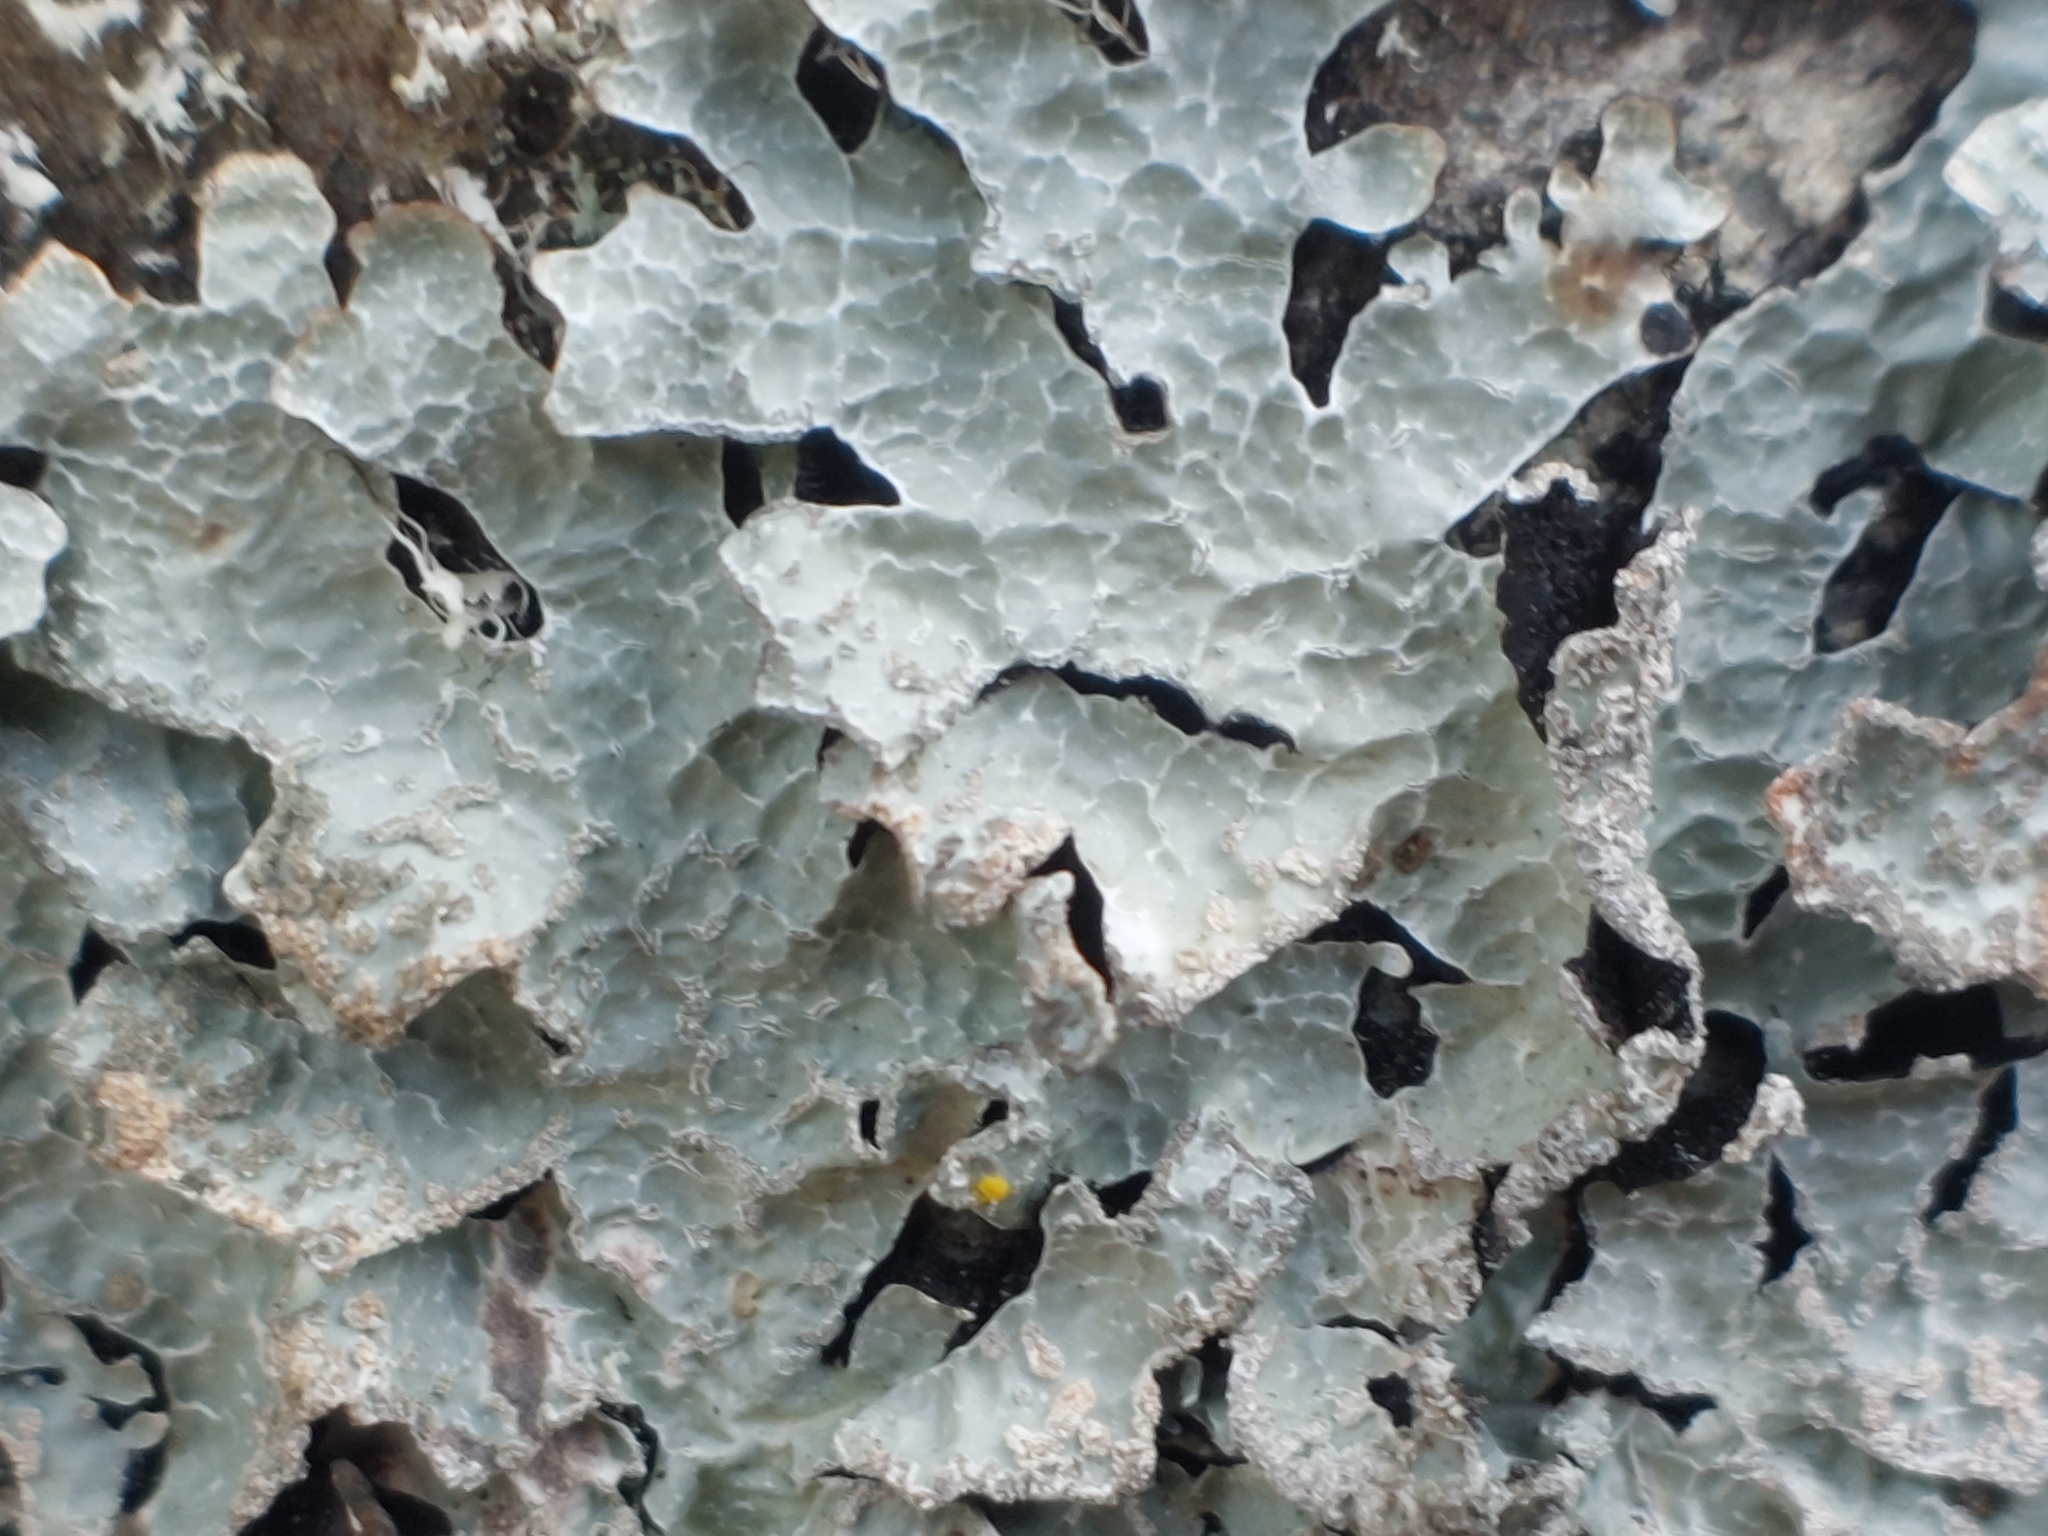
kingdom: Fungi
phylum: Ascomycota
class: Lecanoromycetes
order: Lecanorales
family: Parmeliaceae
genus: Parmelia
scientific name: Parmelia sulcata
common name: Netted shield lichen
